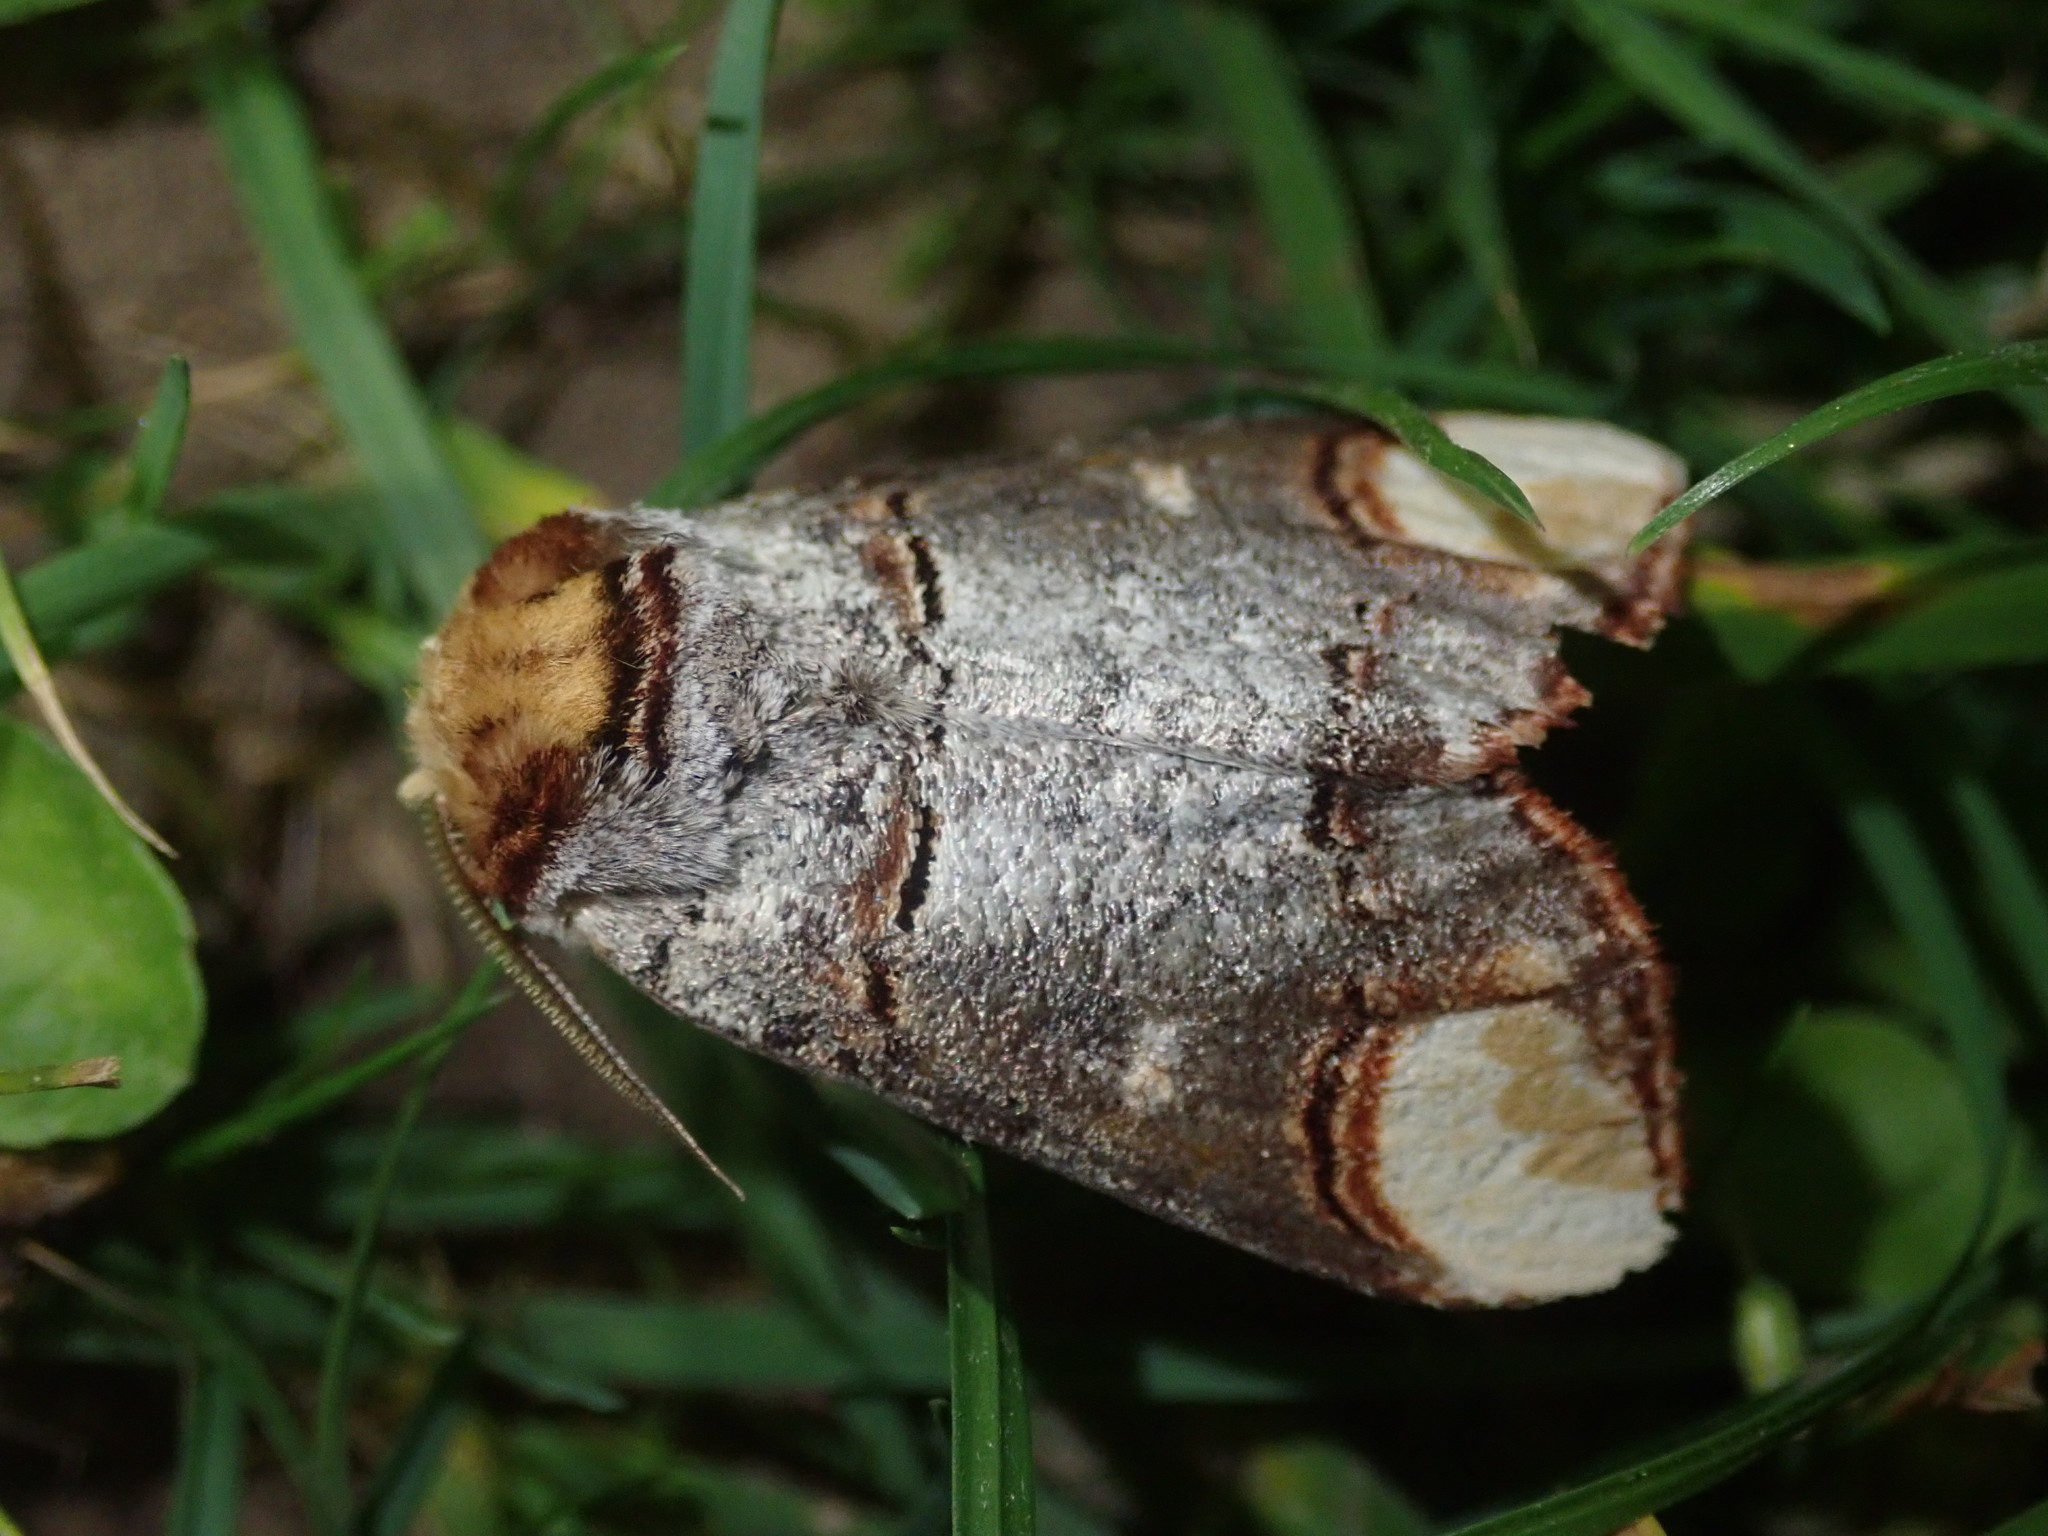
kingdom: Animalia
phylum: Arthropoda
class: Insecta
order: Lepidoptera
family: Notodontidae
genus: Phalera
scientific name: Phalera bucephala
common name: Buff-tip
